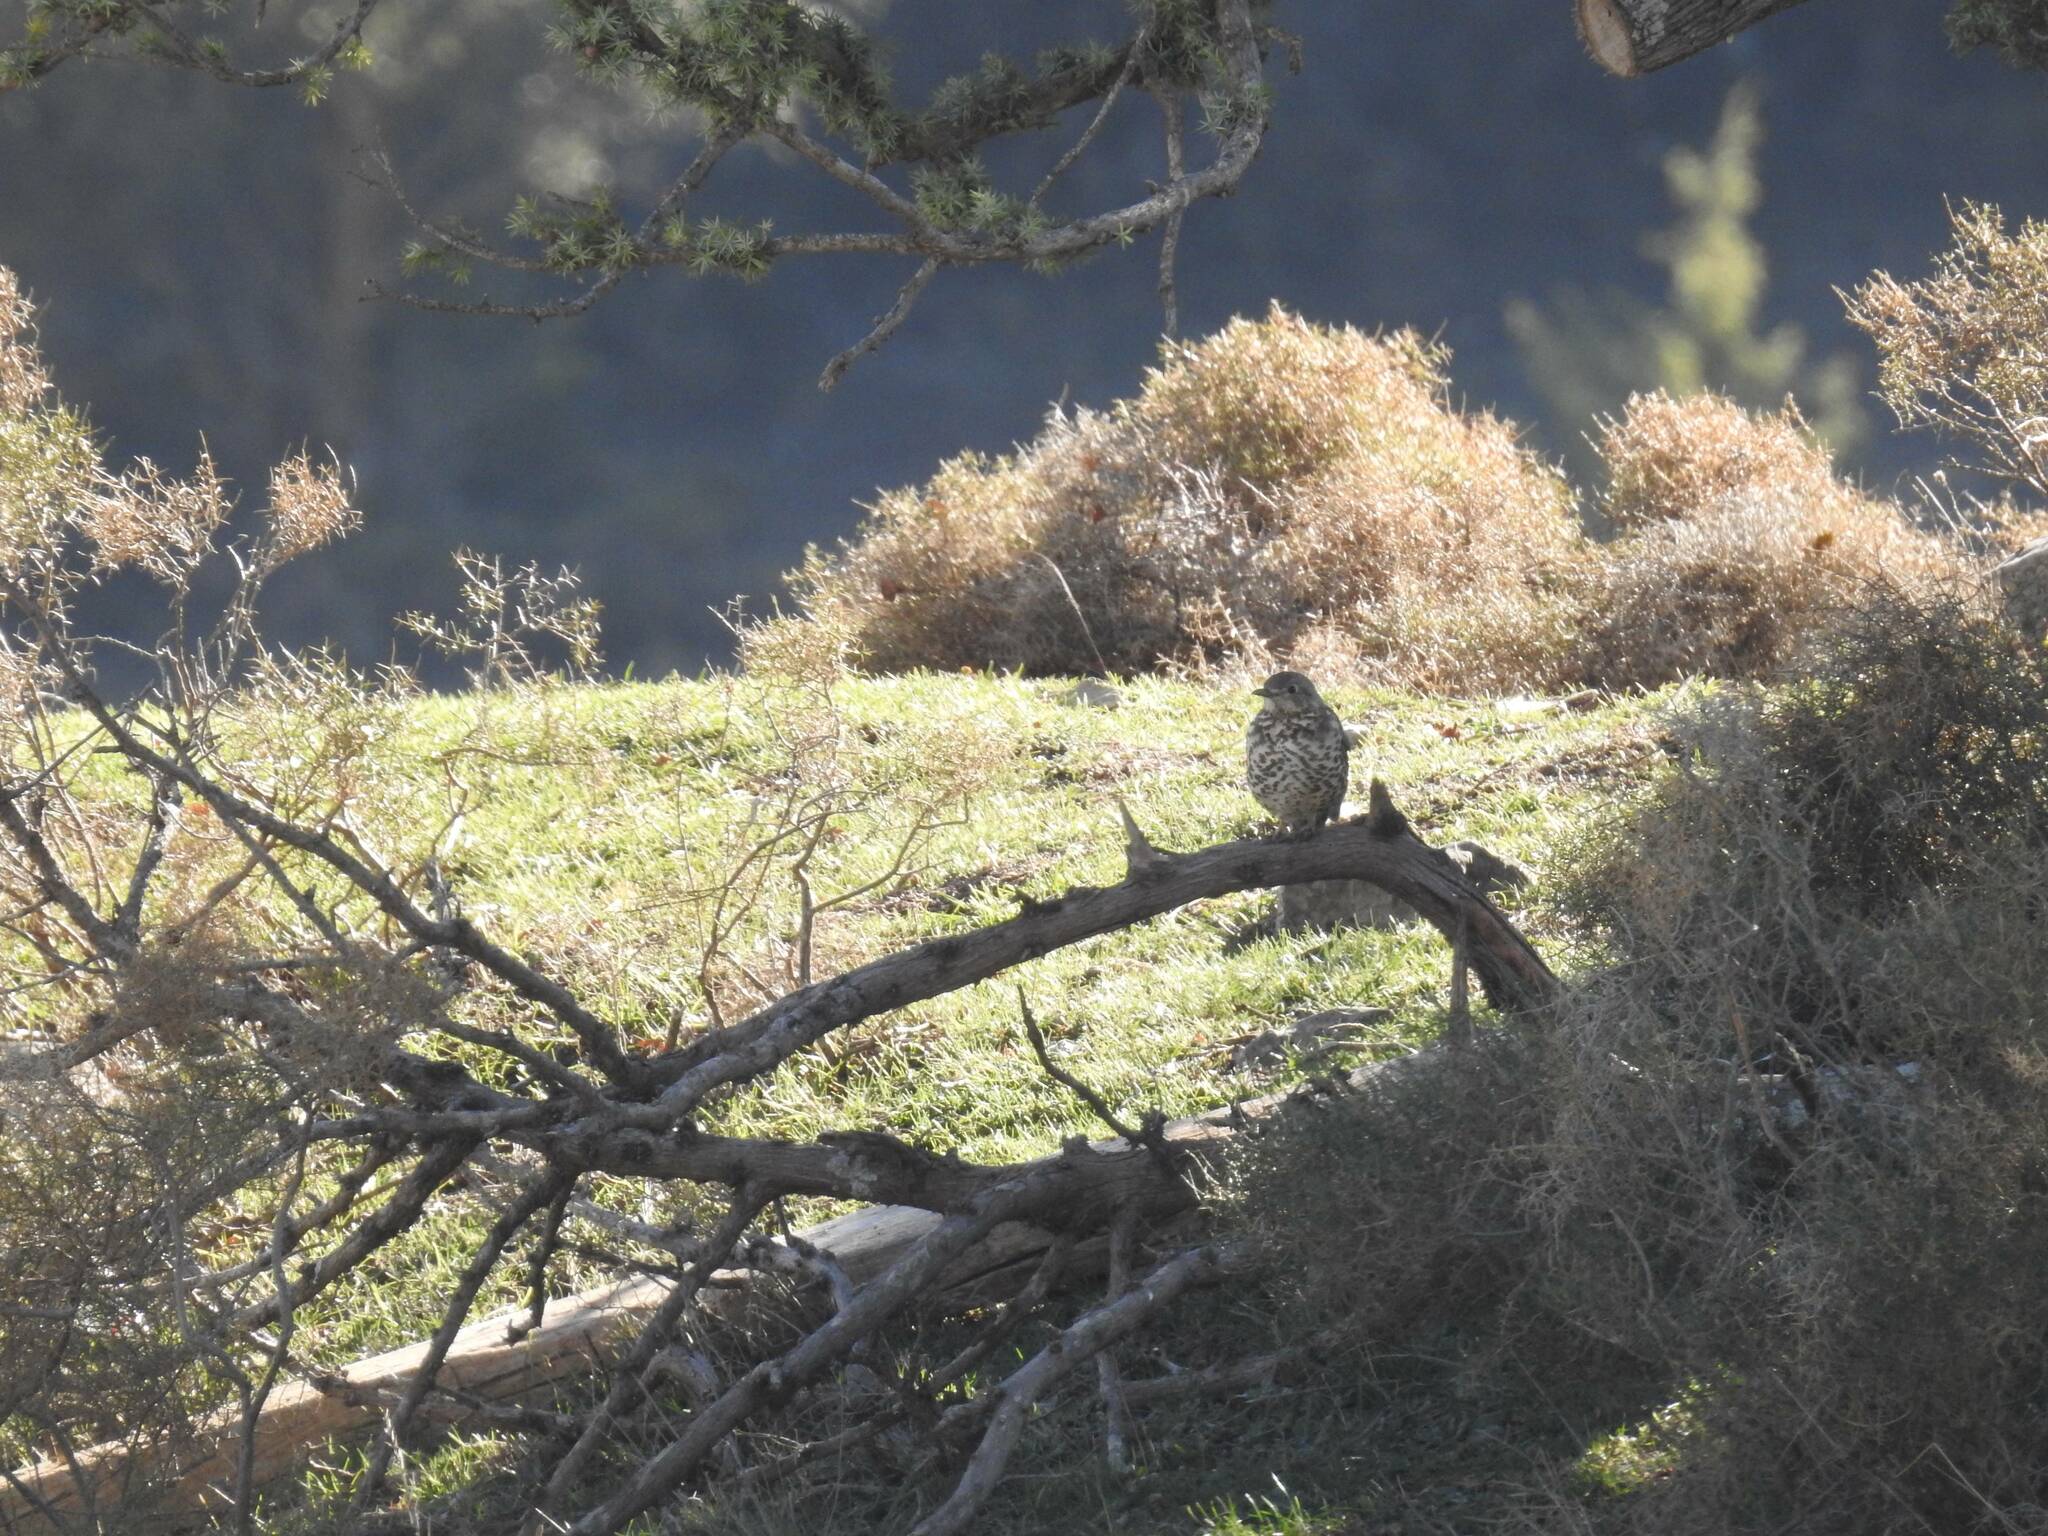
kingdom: Animalia
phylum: Chordata
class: Aves
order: Passeriformes
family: Turdidae
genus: Turdus
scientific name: Turdus viscivorus
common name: Mistle thrush
